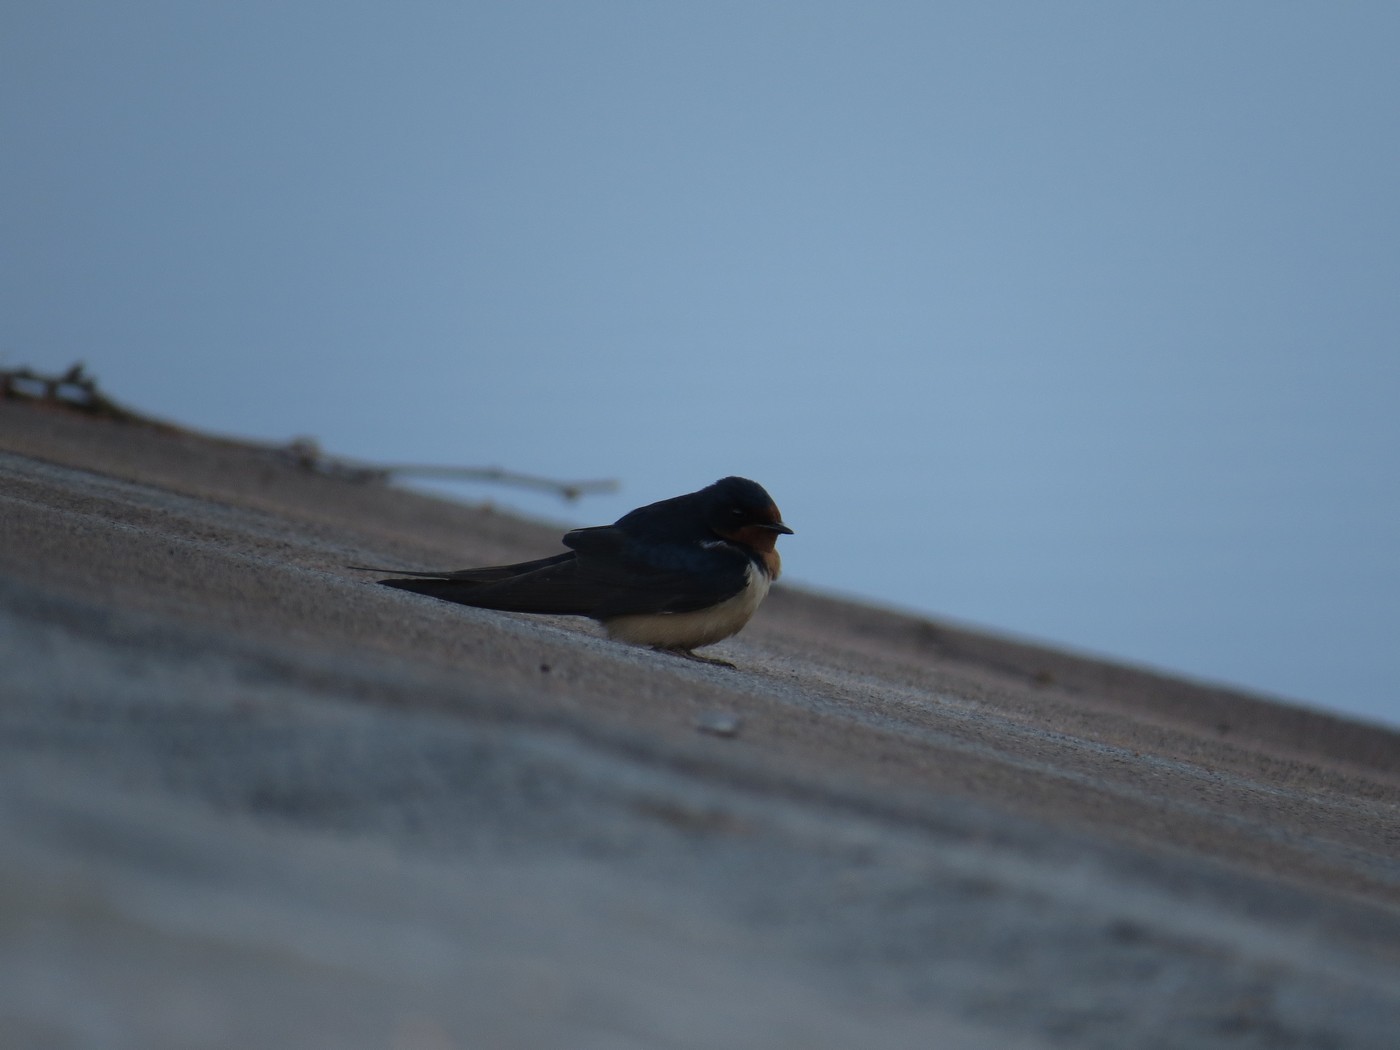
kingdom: Animalia
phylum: Chordata
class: Aves
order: Passeriformes
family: Hirundinidae
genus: Hirundo
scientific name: Hirundo rustica
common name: Barn swallow
